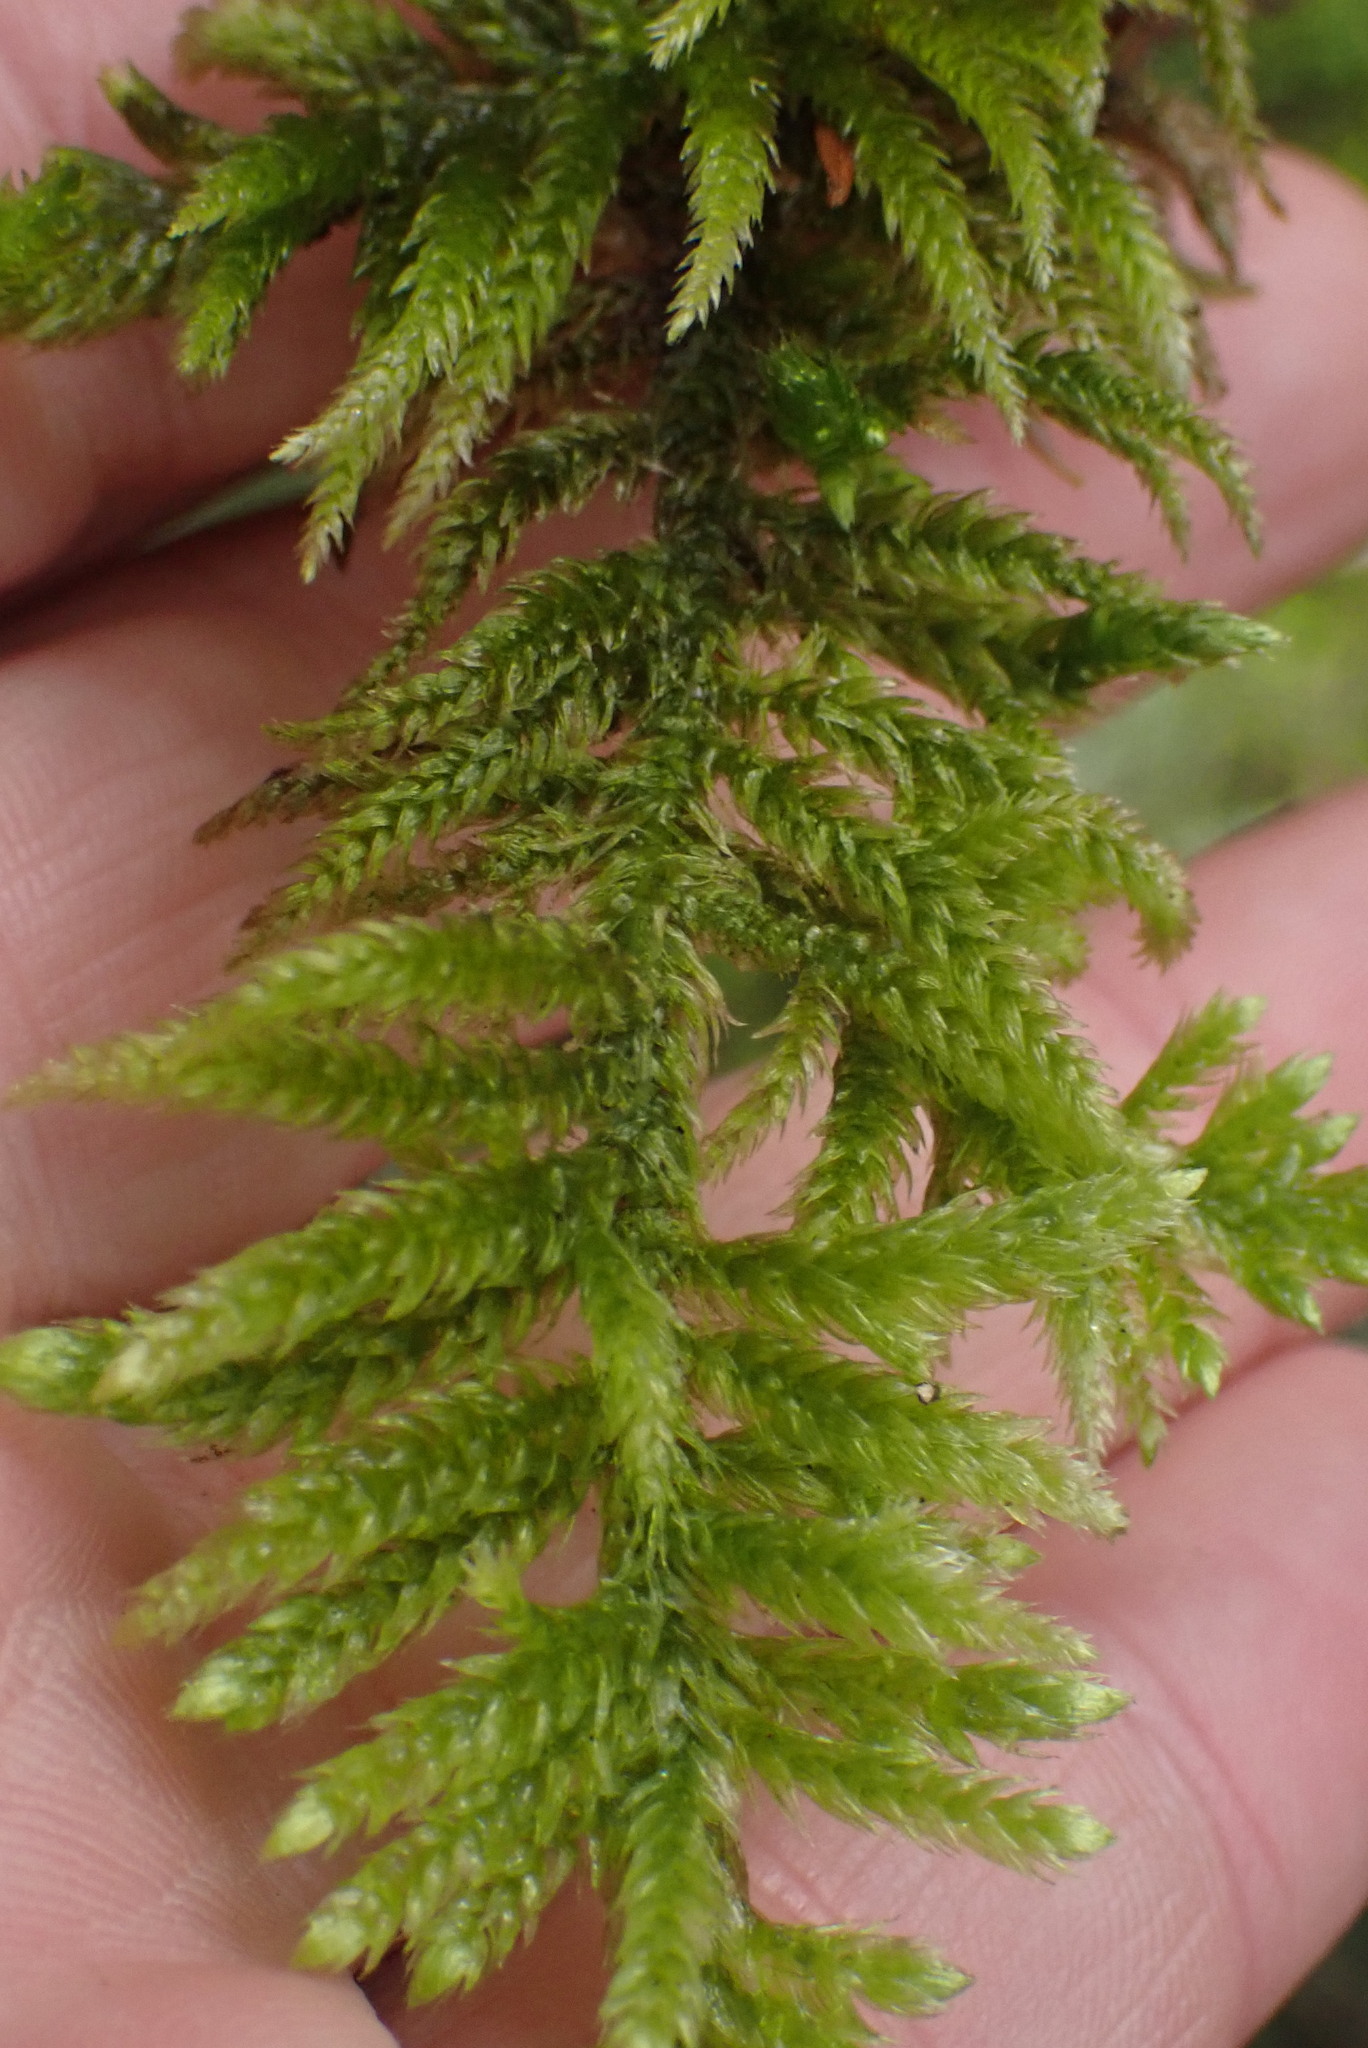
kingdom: Plantae
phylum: Bryophyta
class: Bryopsida
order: Hypnales
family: Brachytheciaceae
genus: Homalothecium
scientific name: Homalothecium megaptilum
